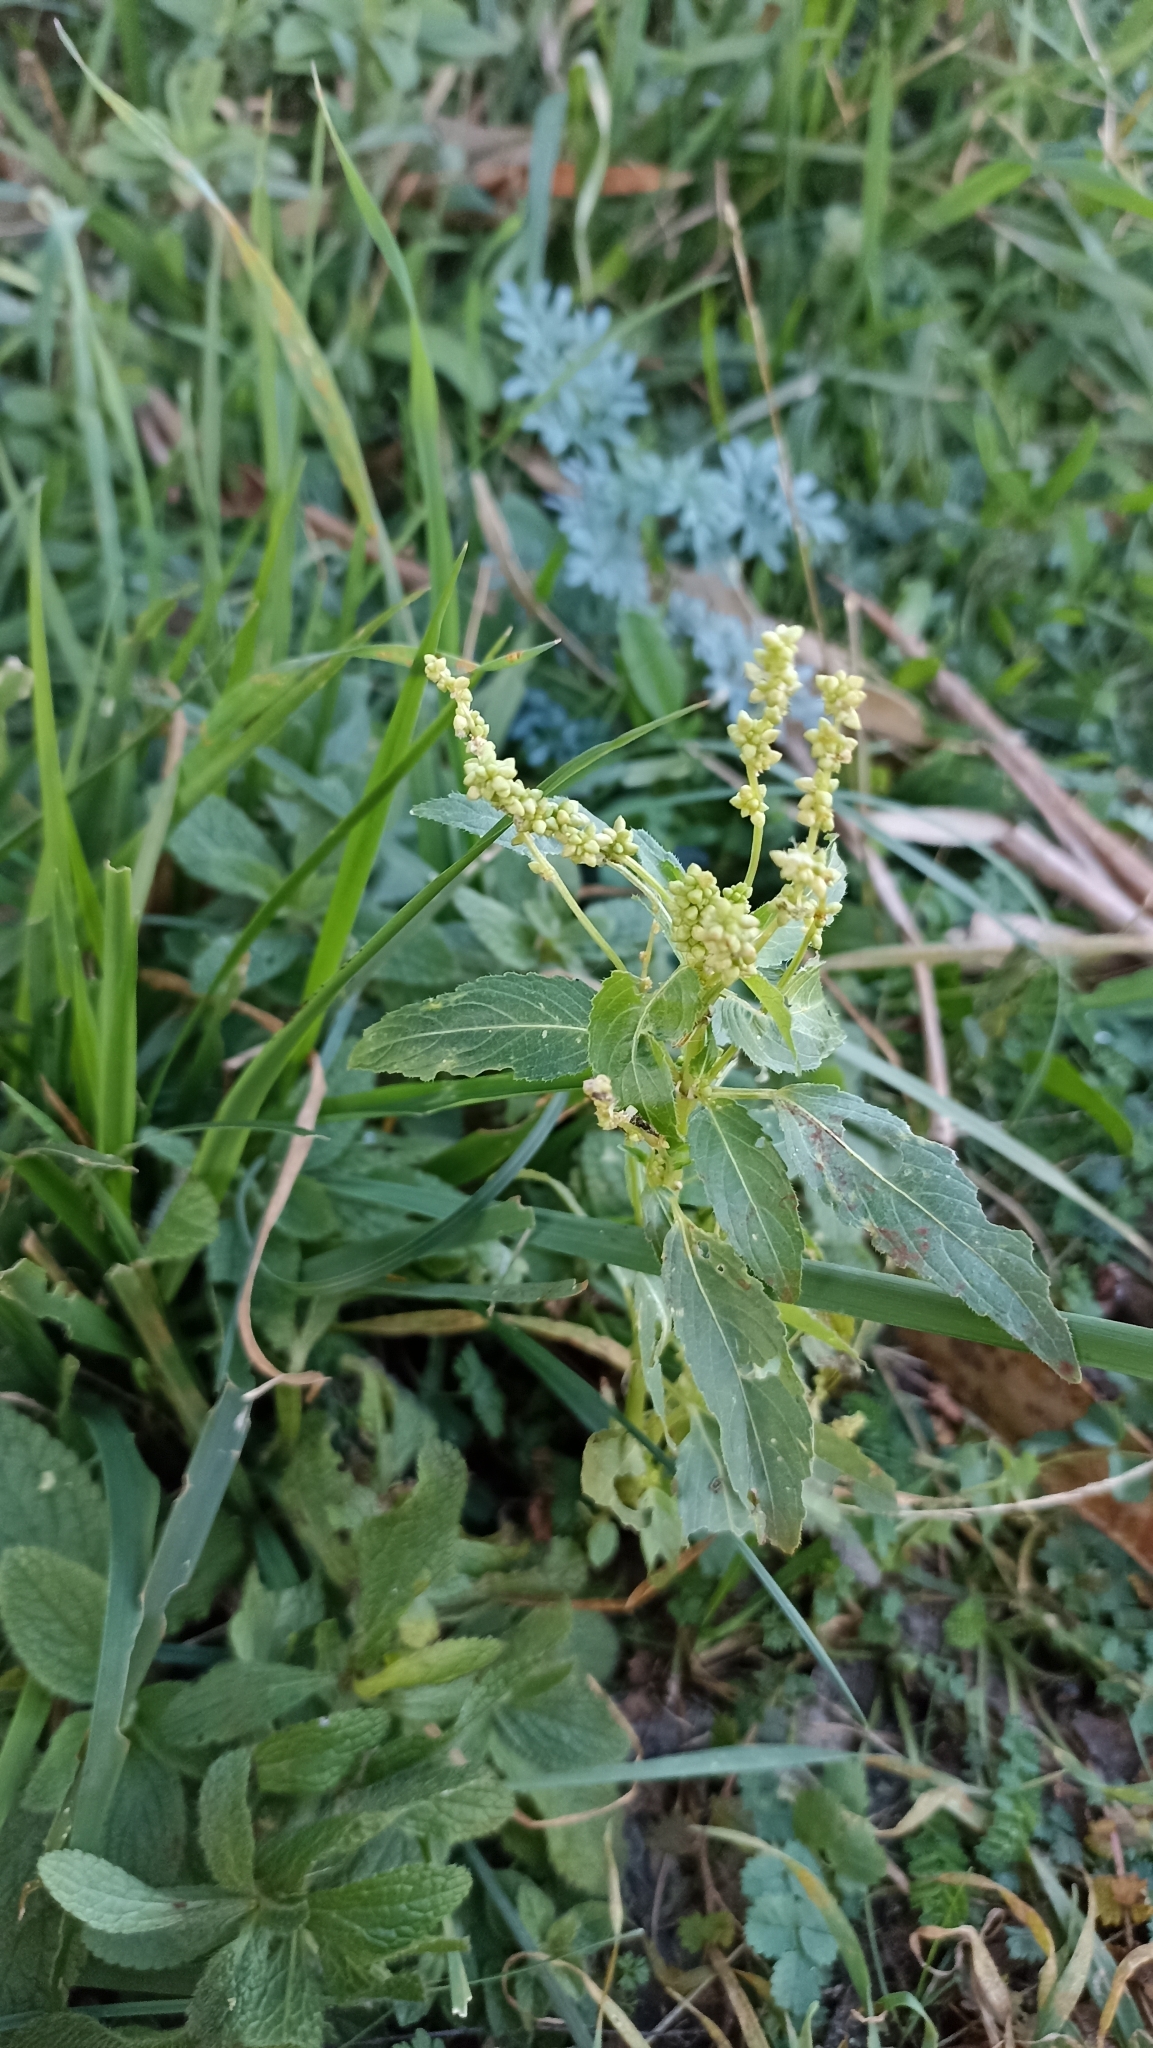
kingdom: Plantae
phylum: Tracheophyta
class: Magnoliopsida
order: Malpighiales
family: Euphorbiaceae
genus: Mercurialis
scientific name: Mercurialis annua
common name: Annual mercury
